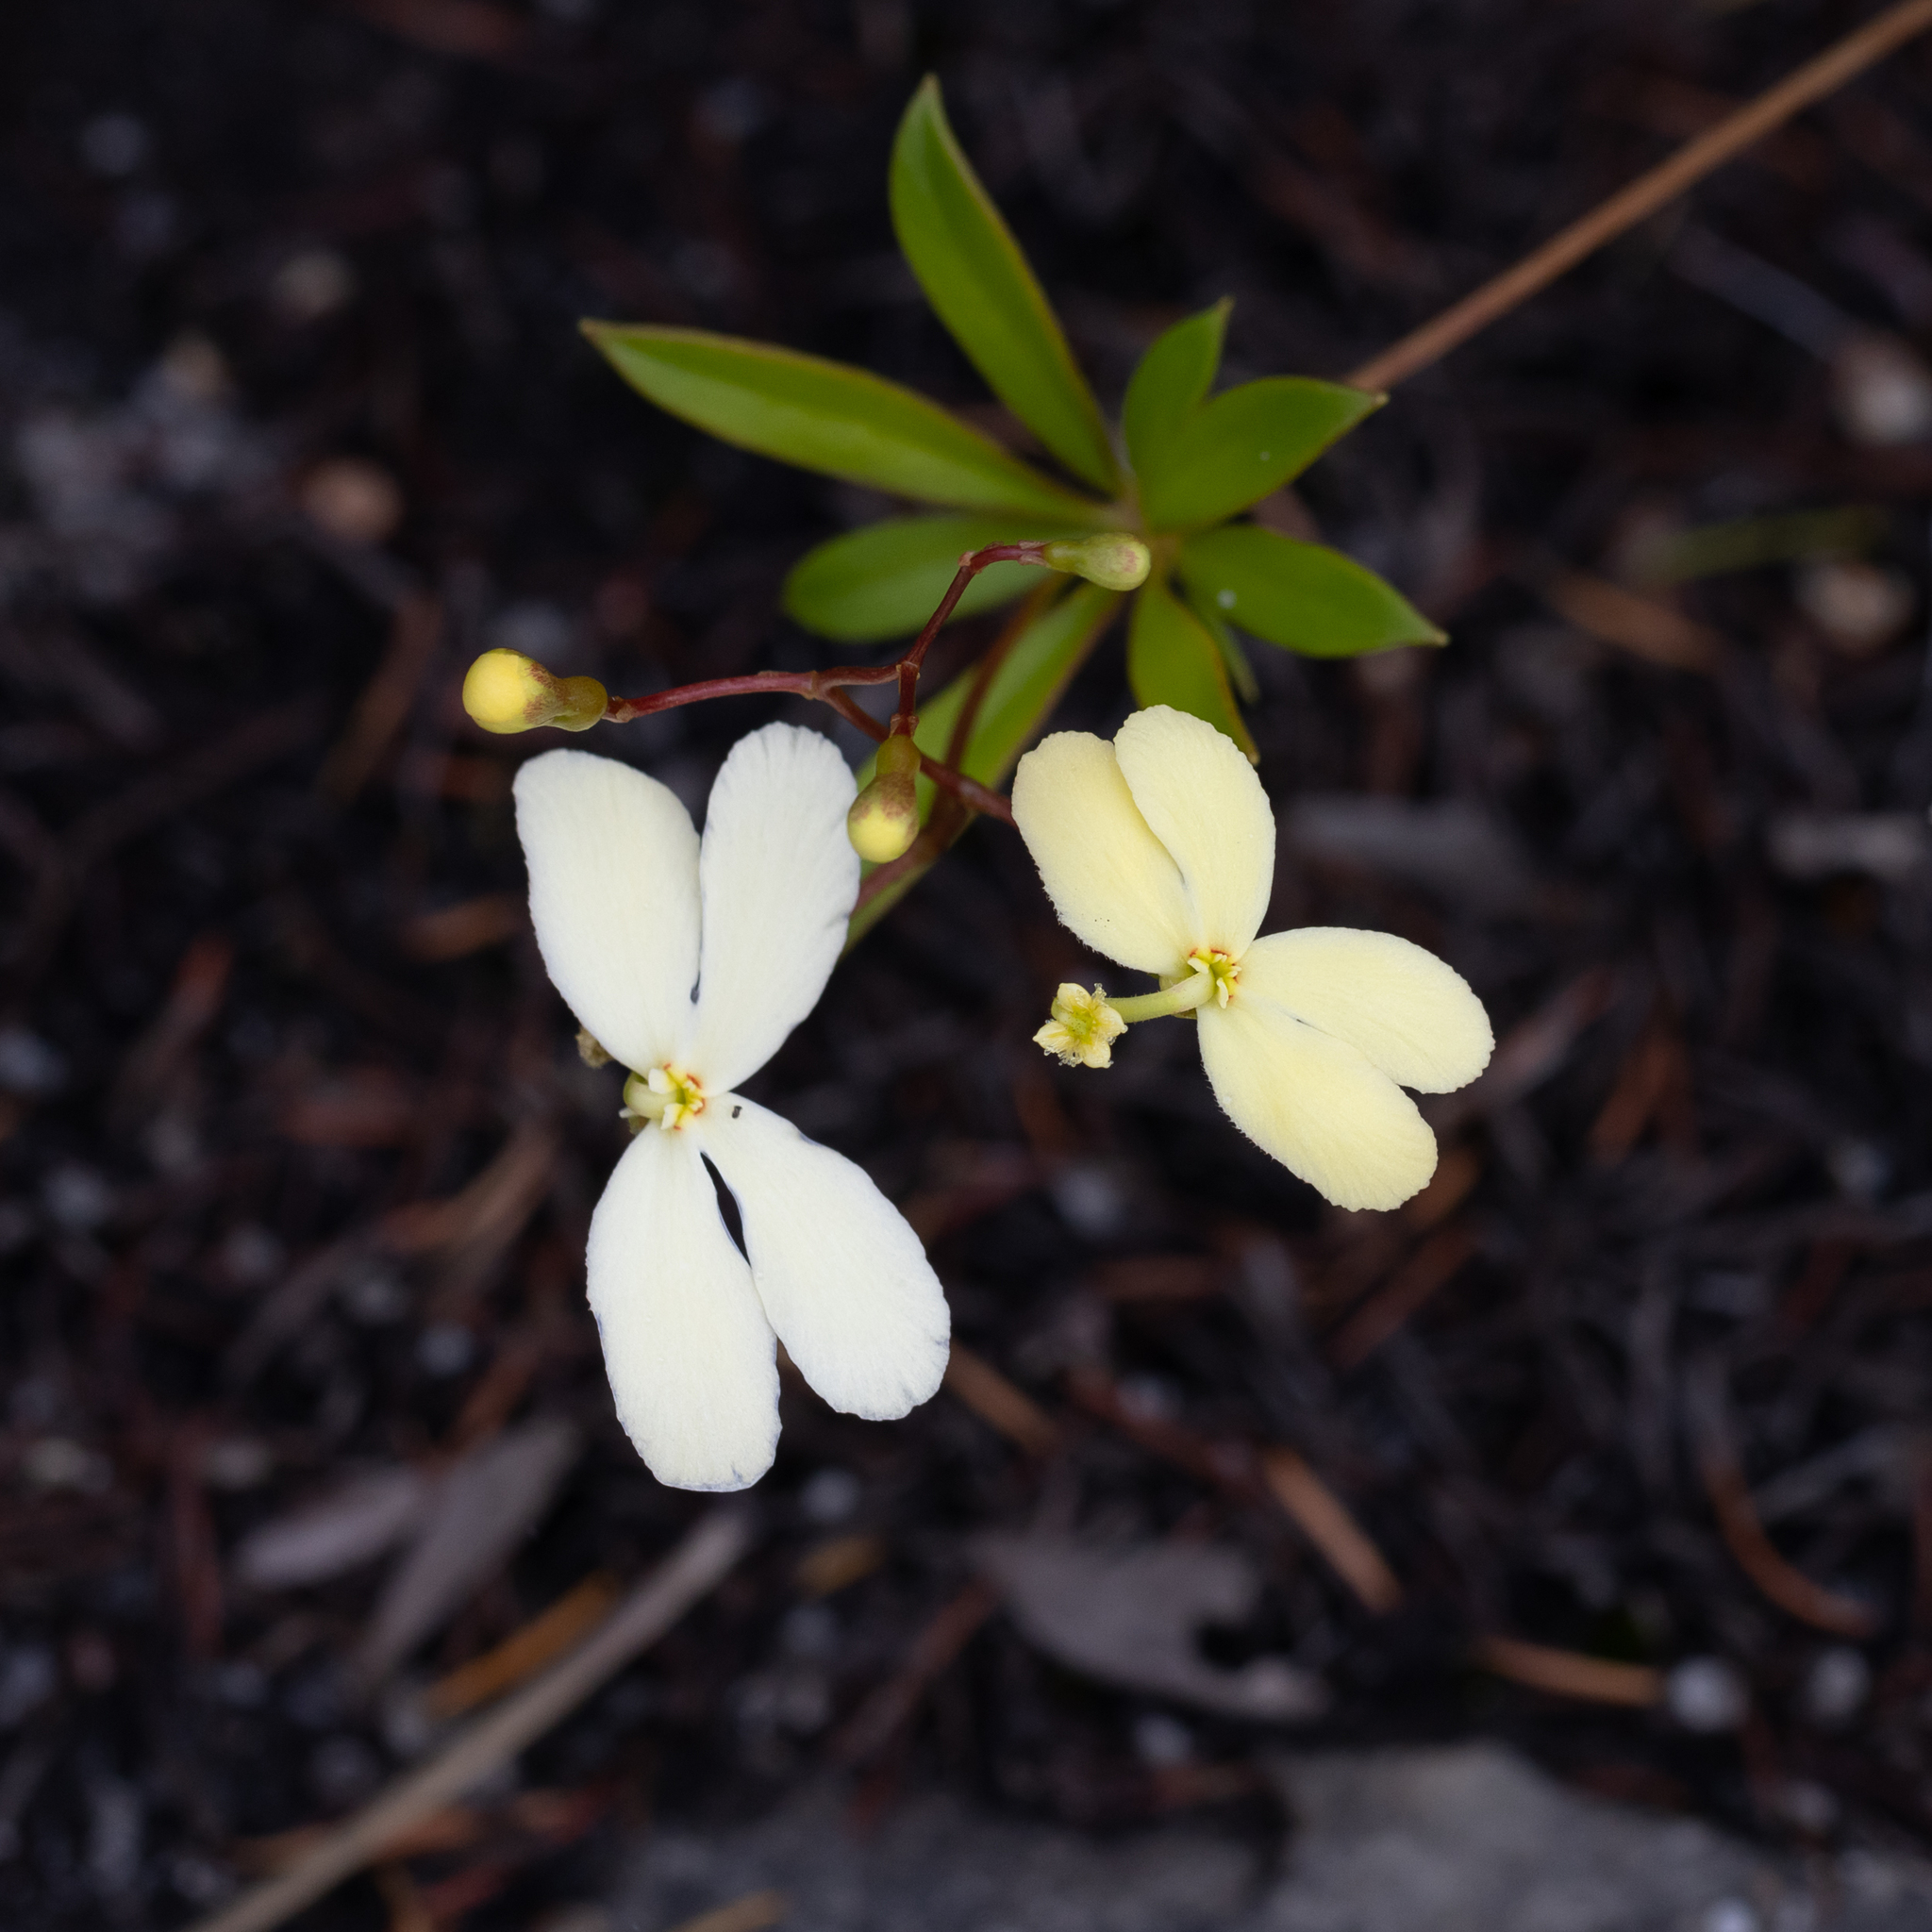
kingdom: Plantae
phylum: Tracheophyta
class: Magnoliopsida
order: Asterales
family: Stylidiaceae
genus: Stylidium
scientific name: Stylidium galioides
